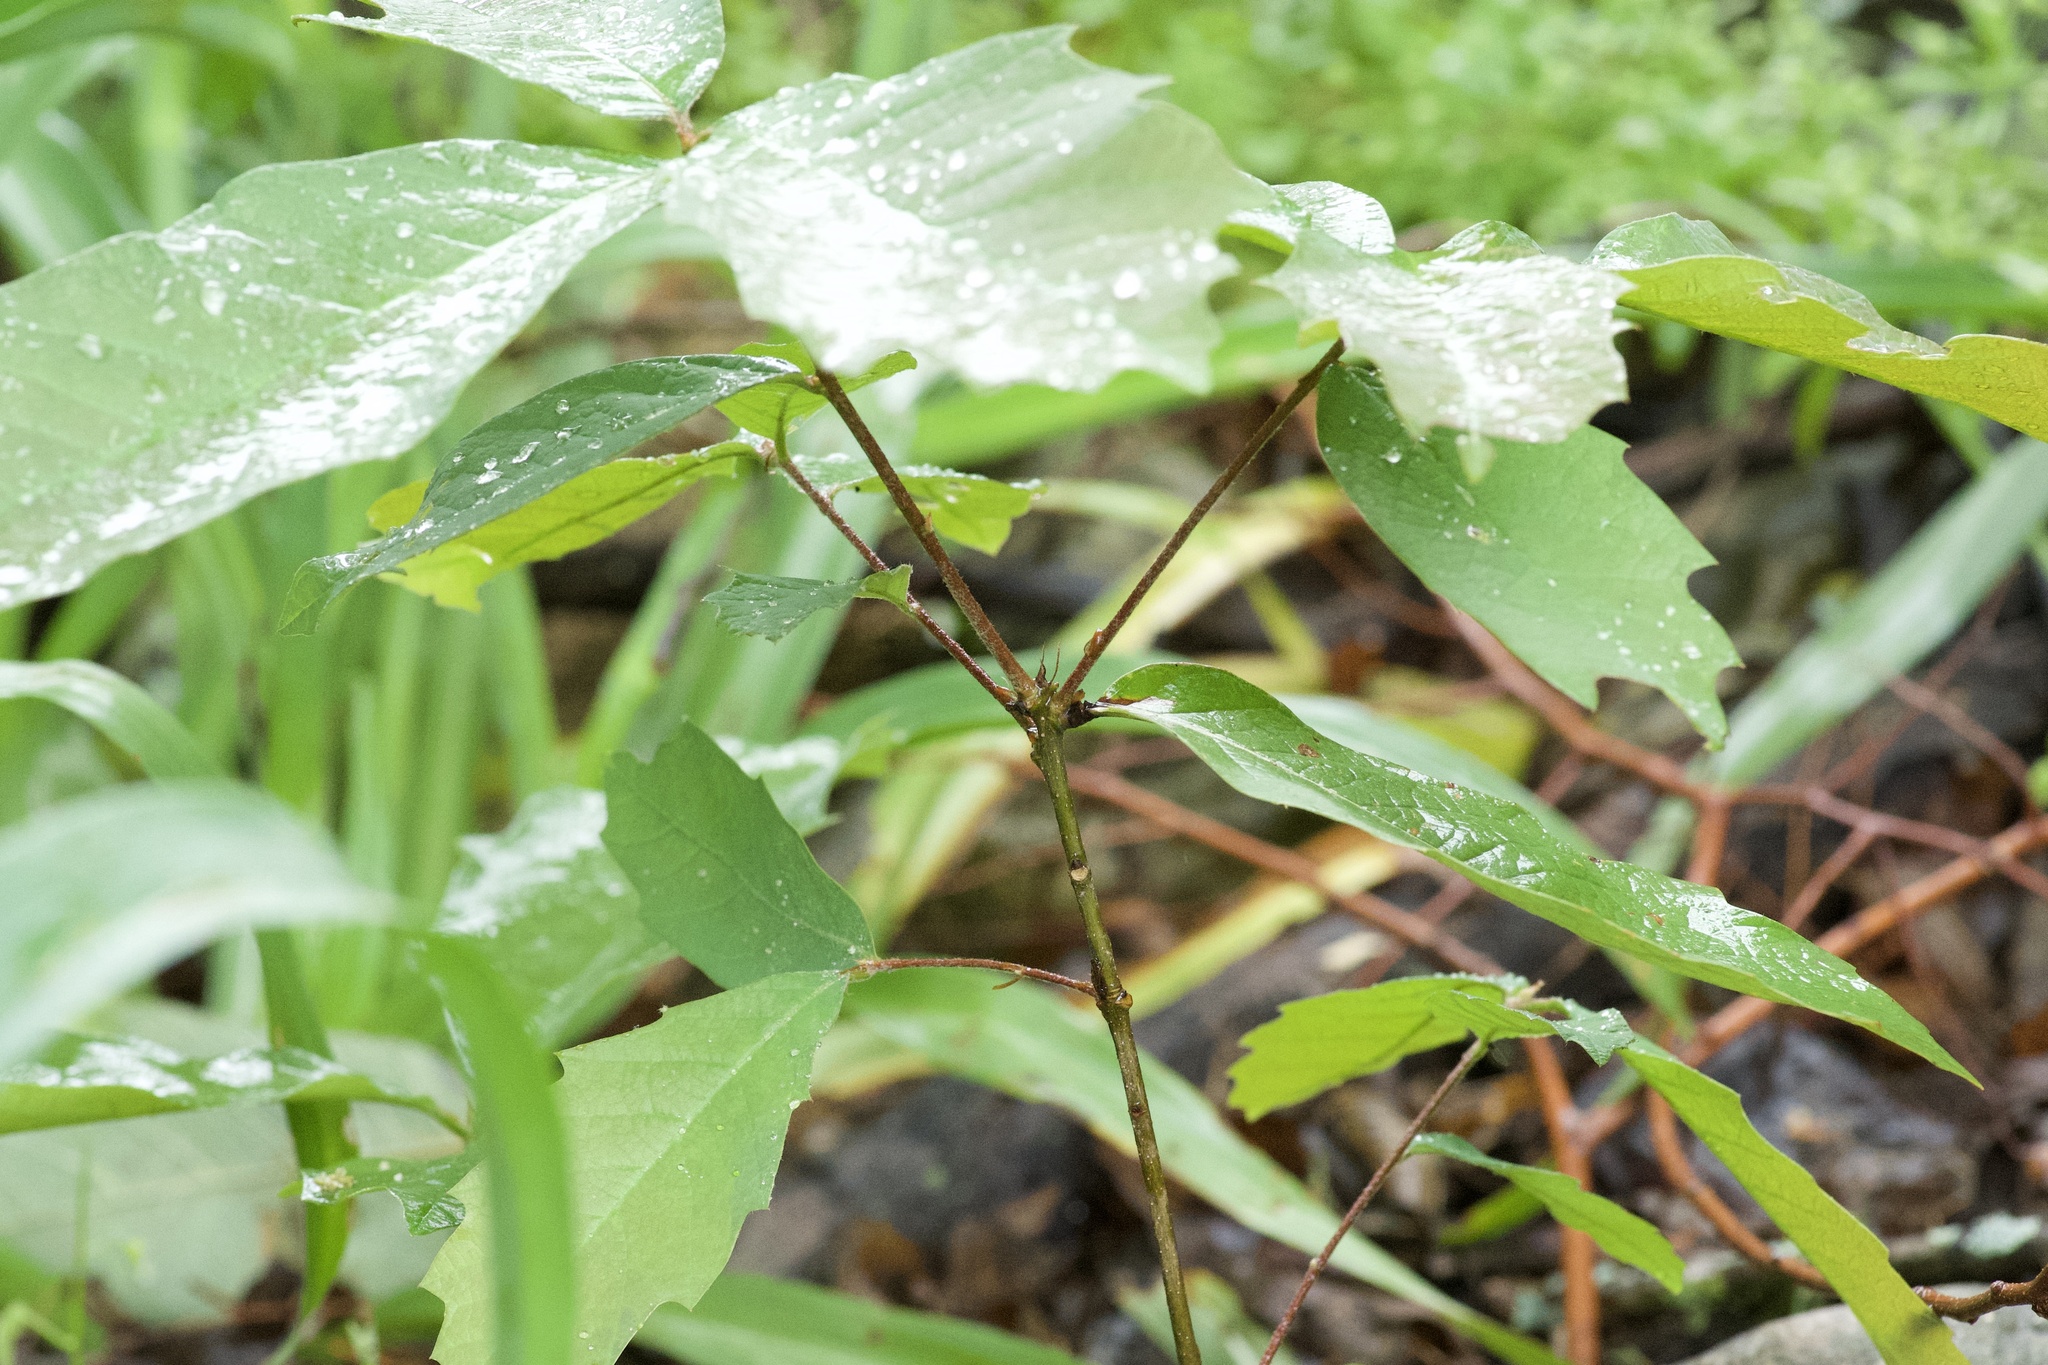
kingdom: Plantae
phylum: Tracheophyta
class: Magnoliopsida
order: Fagales
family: Fagaceae
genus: Quercus
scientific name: Quercus polymorpha
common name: Mexican white oak
